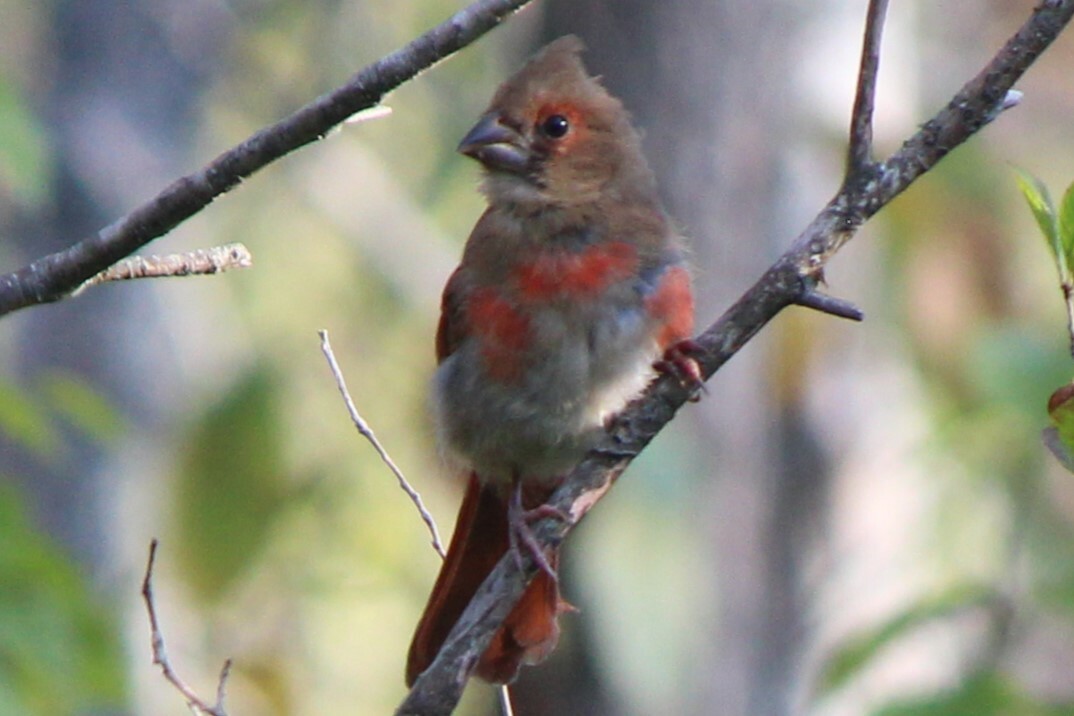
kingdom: Animalia
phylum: Chordata
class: Aves
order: Passeriformes
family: Cardinalidae
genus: Cardinalis
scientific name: Cardinalis cardinalis
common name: Northern cardinal
